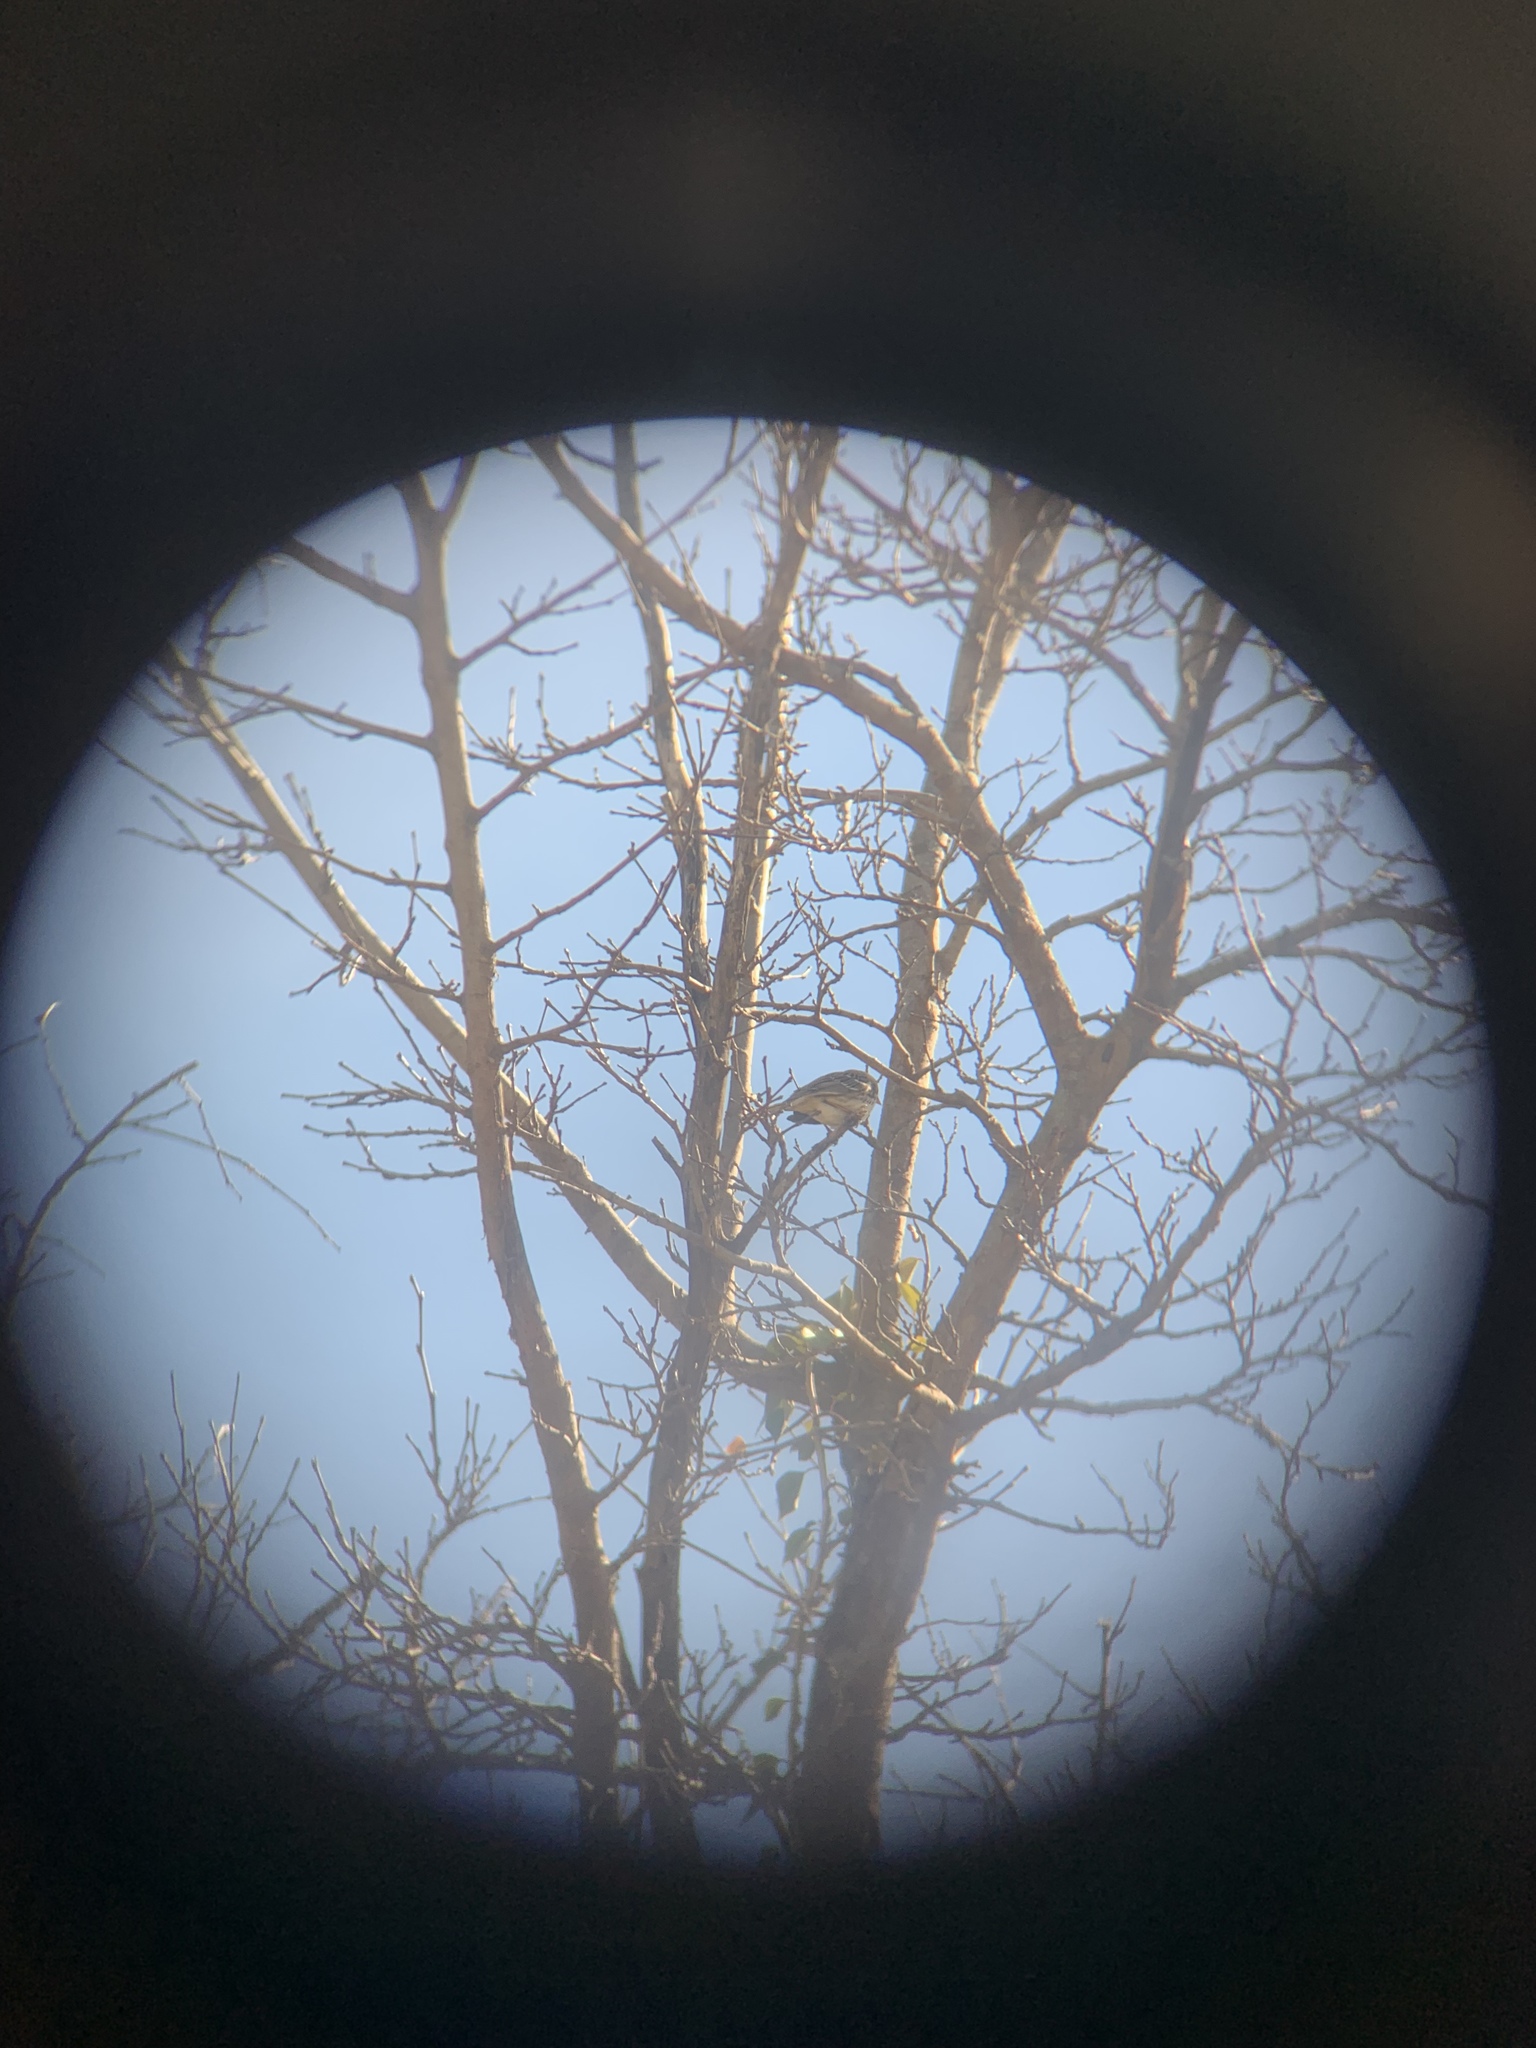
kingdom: Animalia
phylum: Chordata
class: Aves
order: Passeriformes
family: Passerellidae
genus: Zonotrichia
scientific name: Zonotrichia querula
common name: Harris's sparrow
